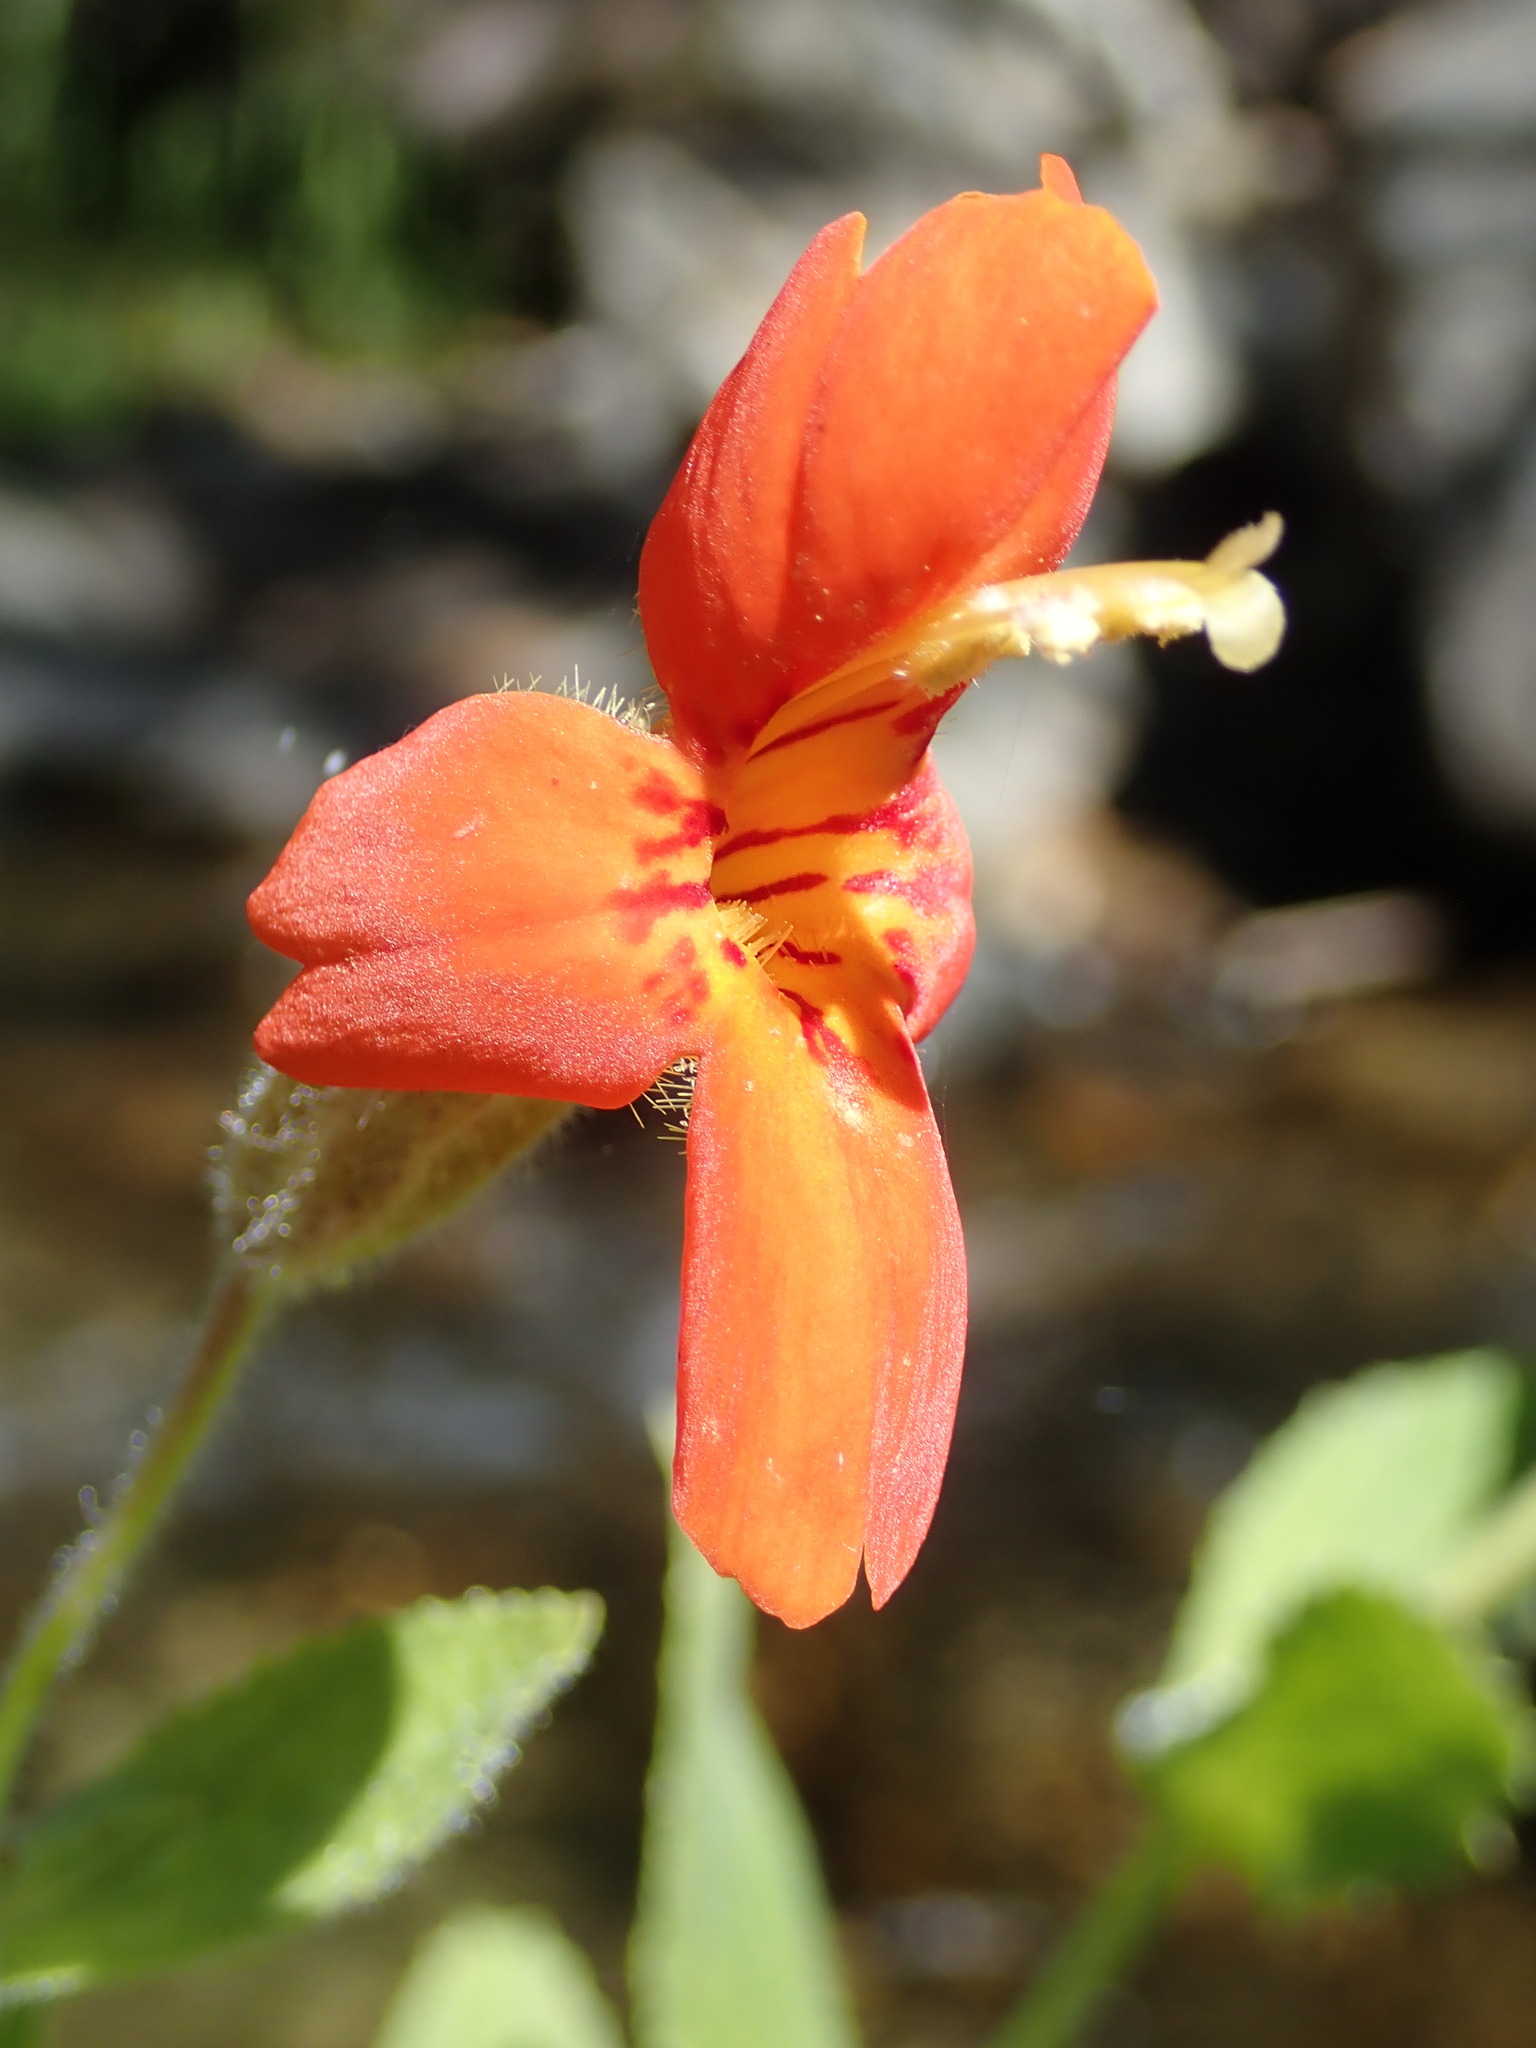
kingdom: Plantae
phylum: Tracheophyta
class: Magnoliopsida
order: Lamiales
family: Phrymaceae
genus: Erythranthe
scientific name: Erythranthe cardinalis
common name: Scarlet monkey-flower
